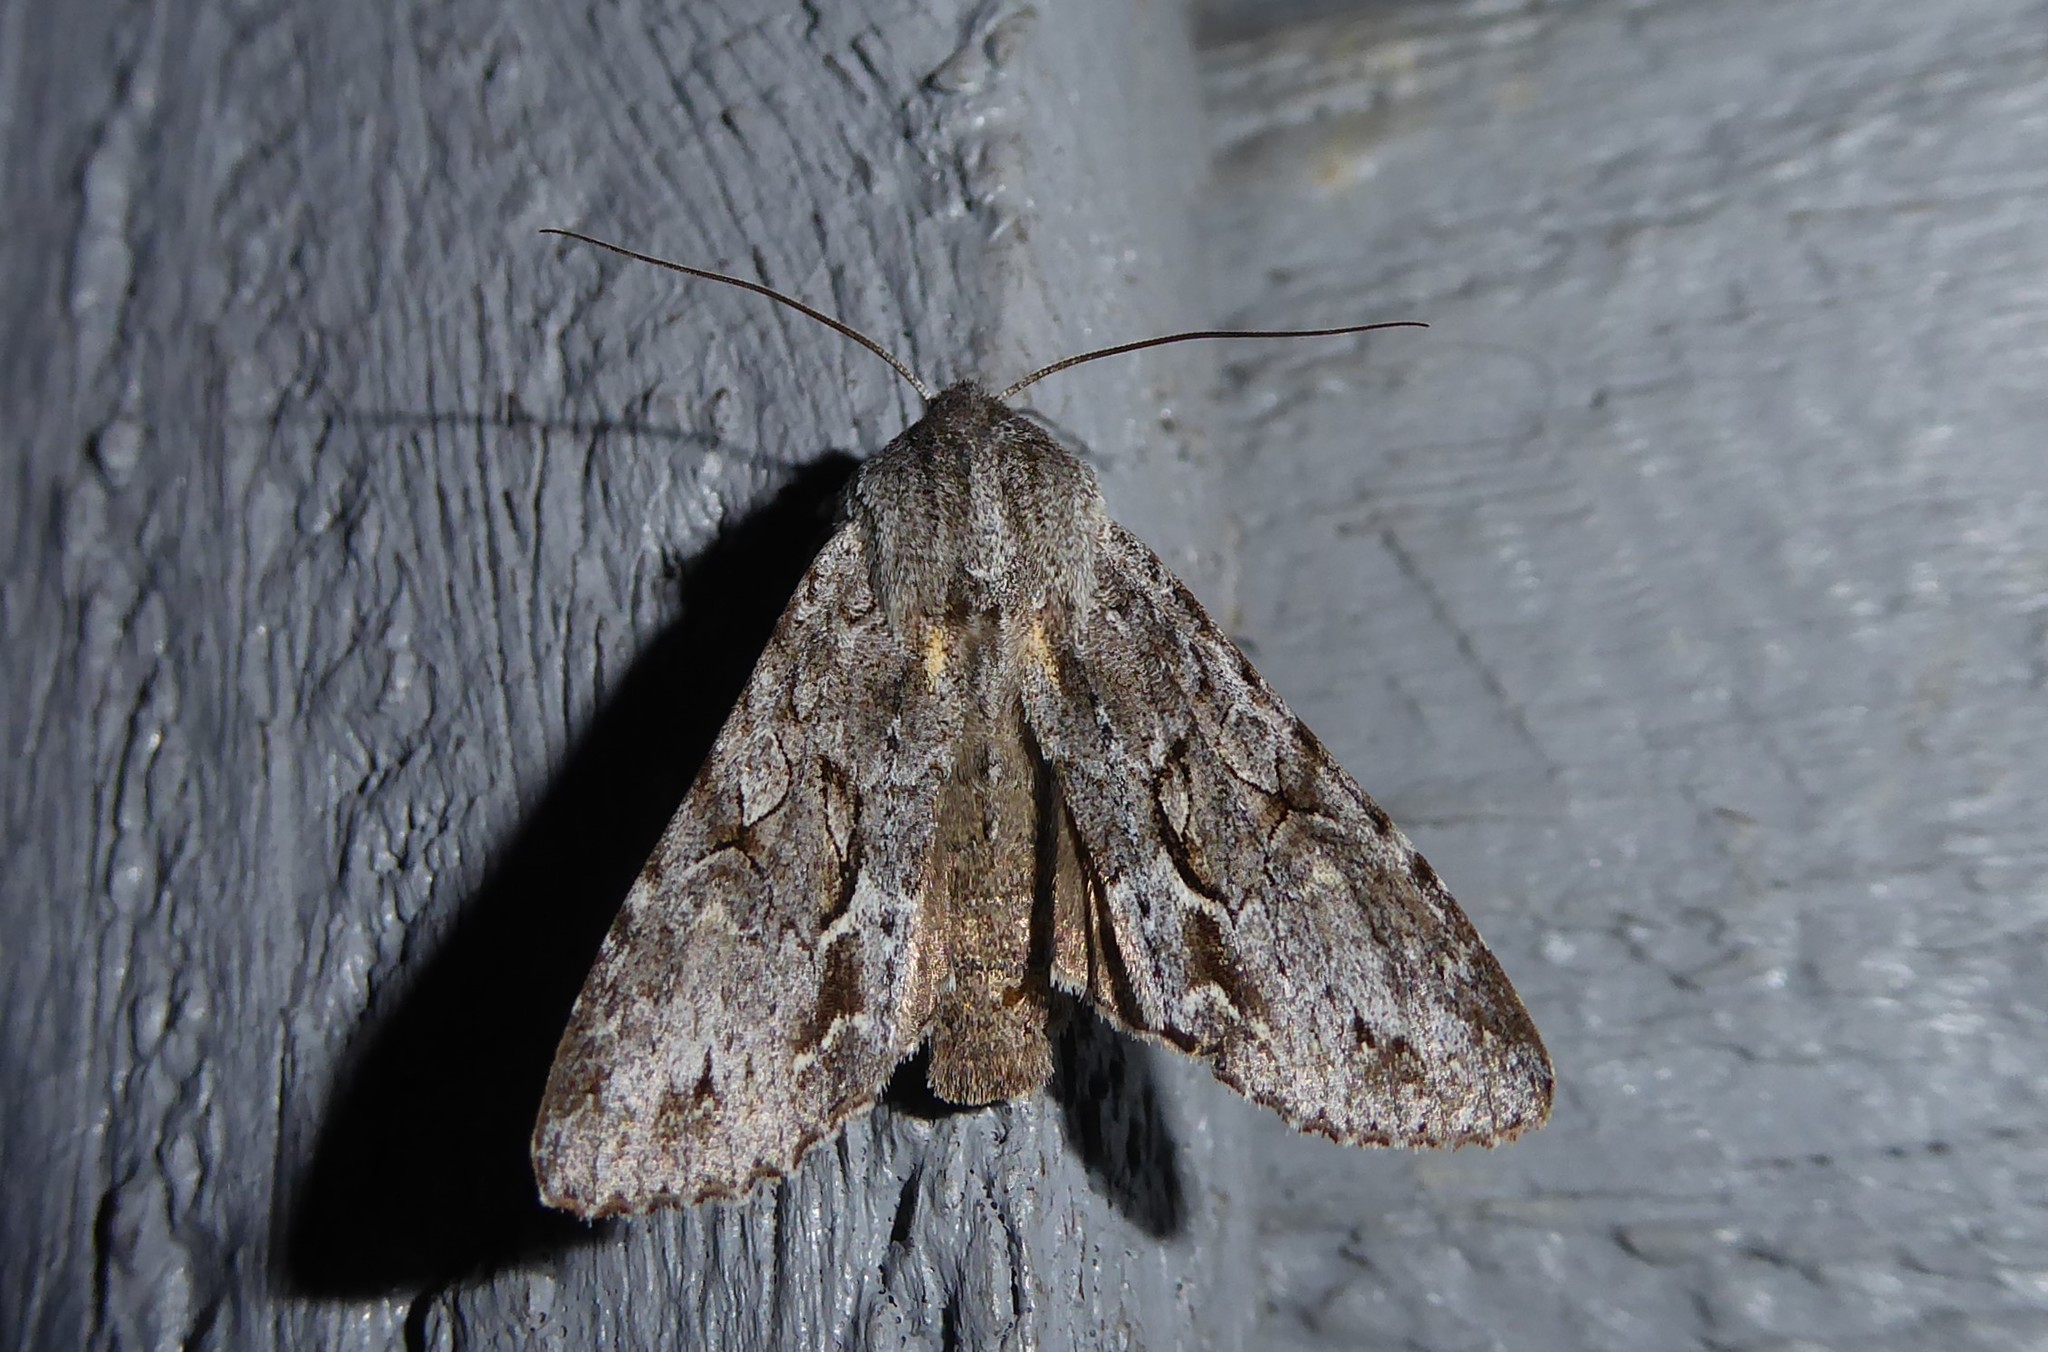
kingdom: Animalia
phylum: Arthropoda
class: Insecta
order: Lepidoptera
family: Noctuidae
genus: Ichneutica
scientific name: Ichneutica
